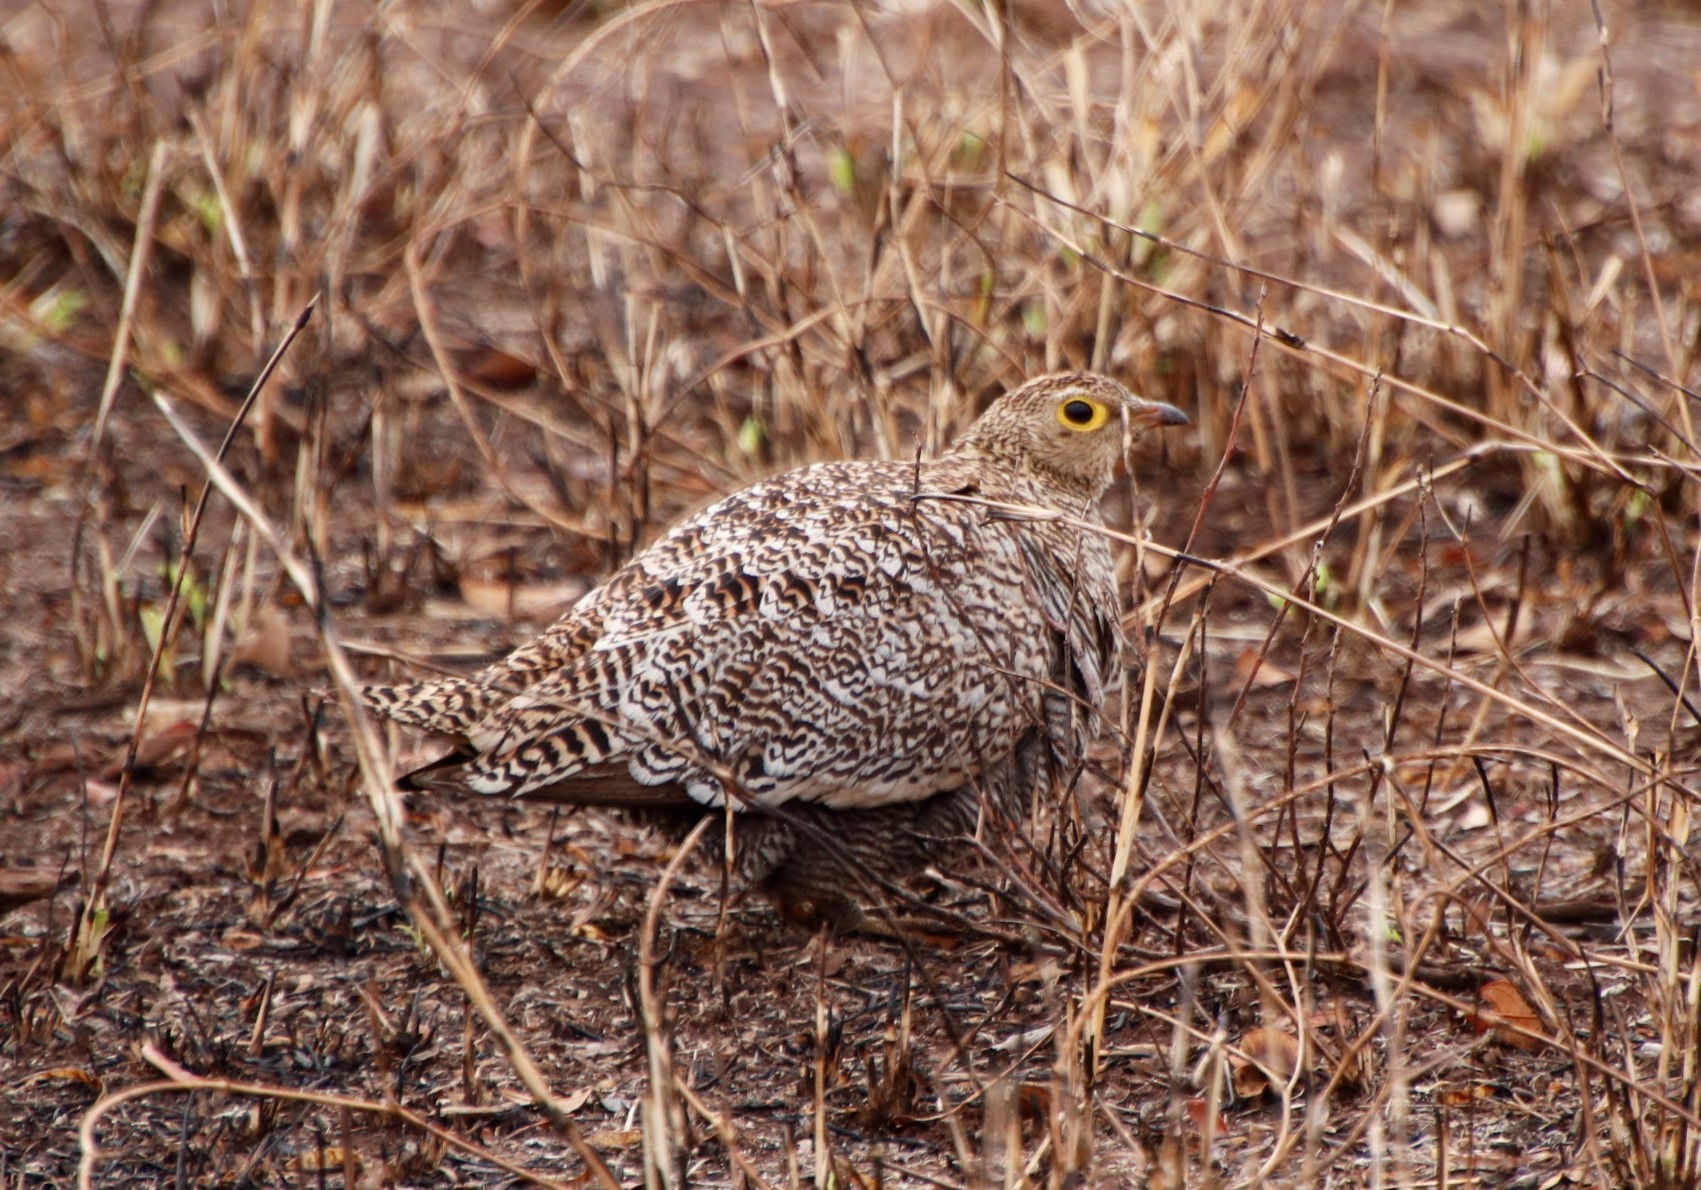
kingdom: Animalia
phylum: Chordata
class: Aves
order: Pteroclidiformes
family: Pteroclididae
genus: Pterocles
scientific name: Pterocles bicinctus
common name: Double-banded sandgrouse
